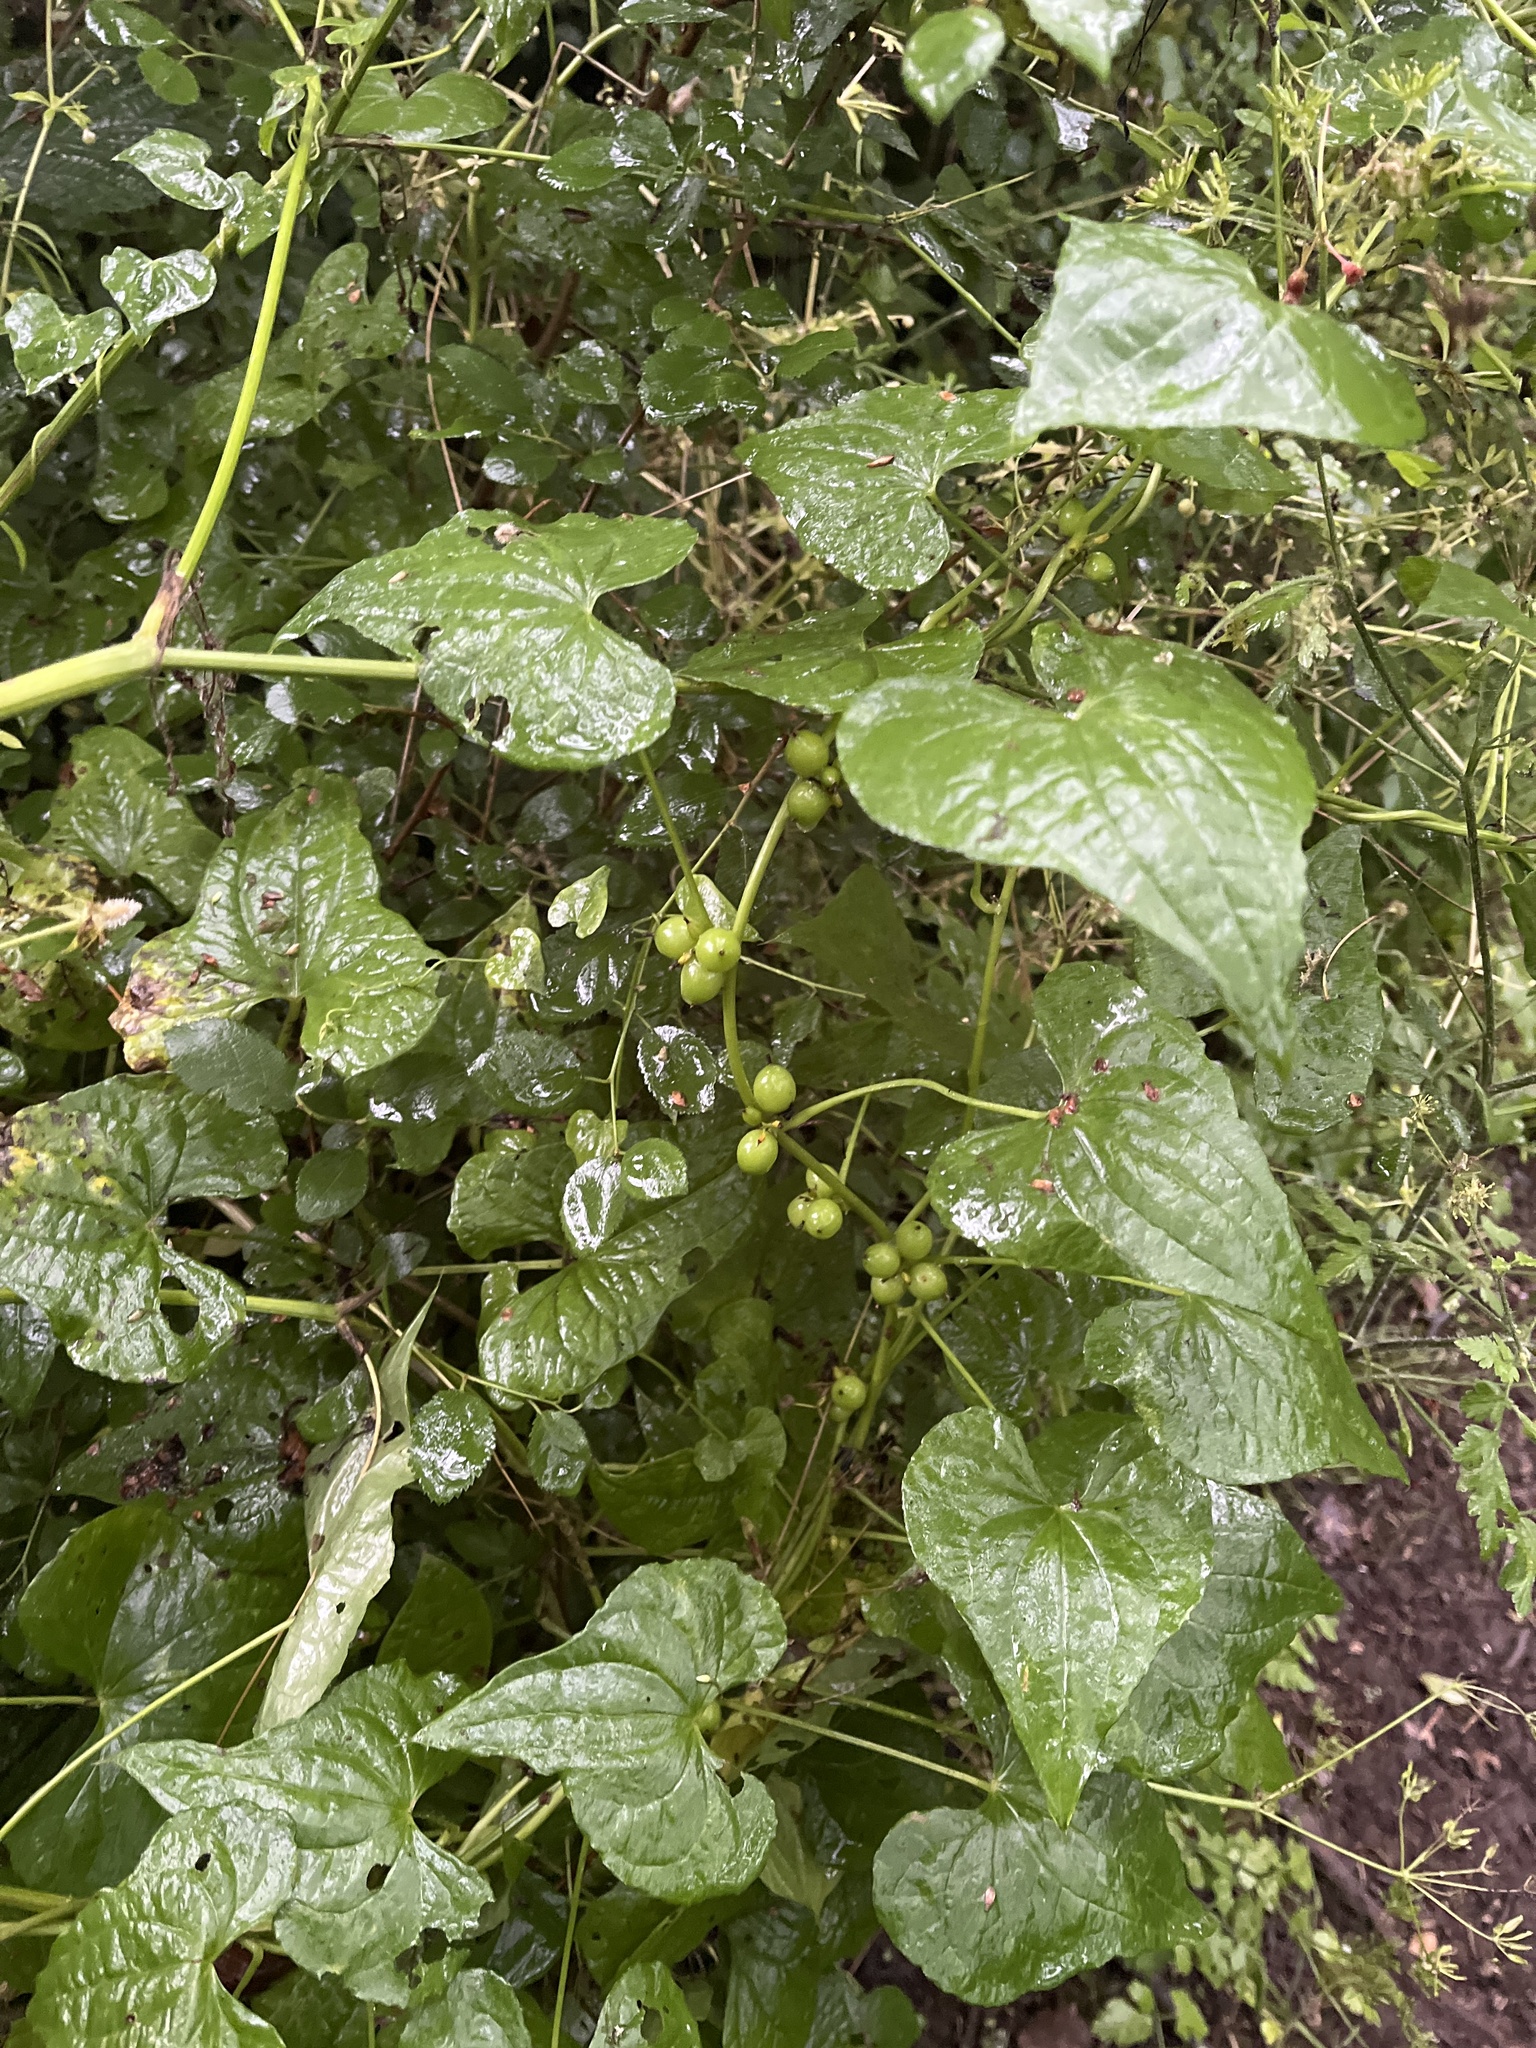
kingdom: Plantae
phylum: Tracheophyta
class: Liliopsida
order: Dioscoreales
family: Dioscoreaceae
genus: Dioscorea
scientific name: Dioscorea communis
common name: Black-bindweed
